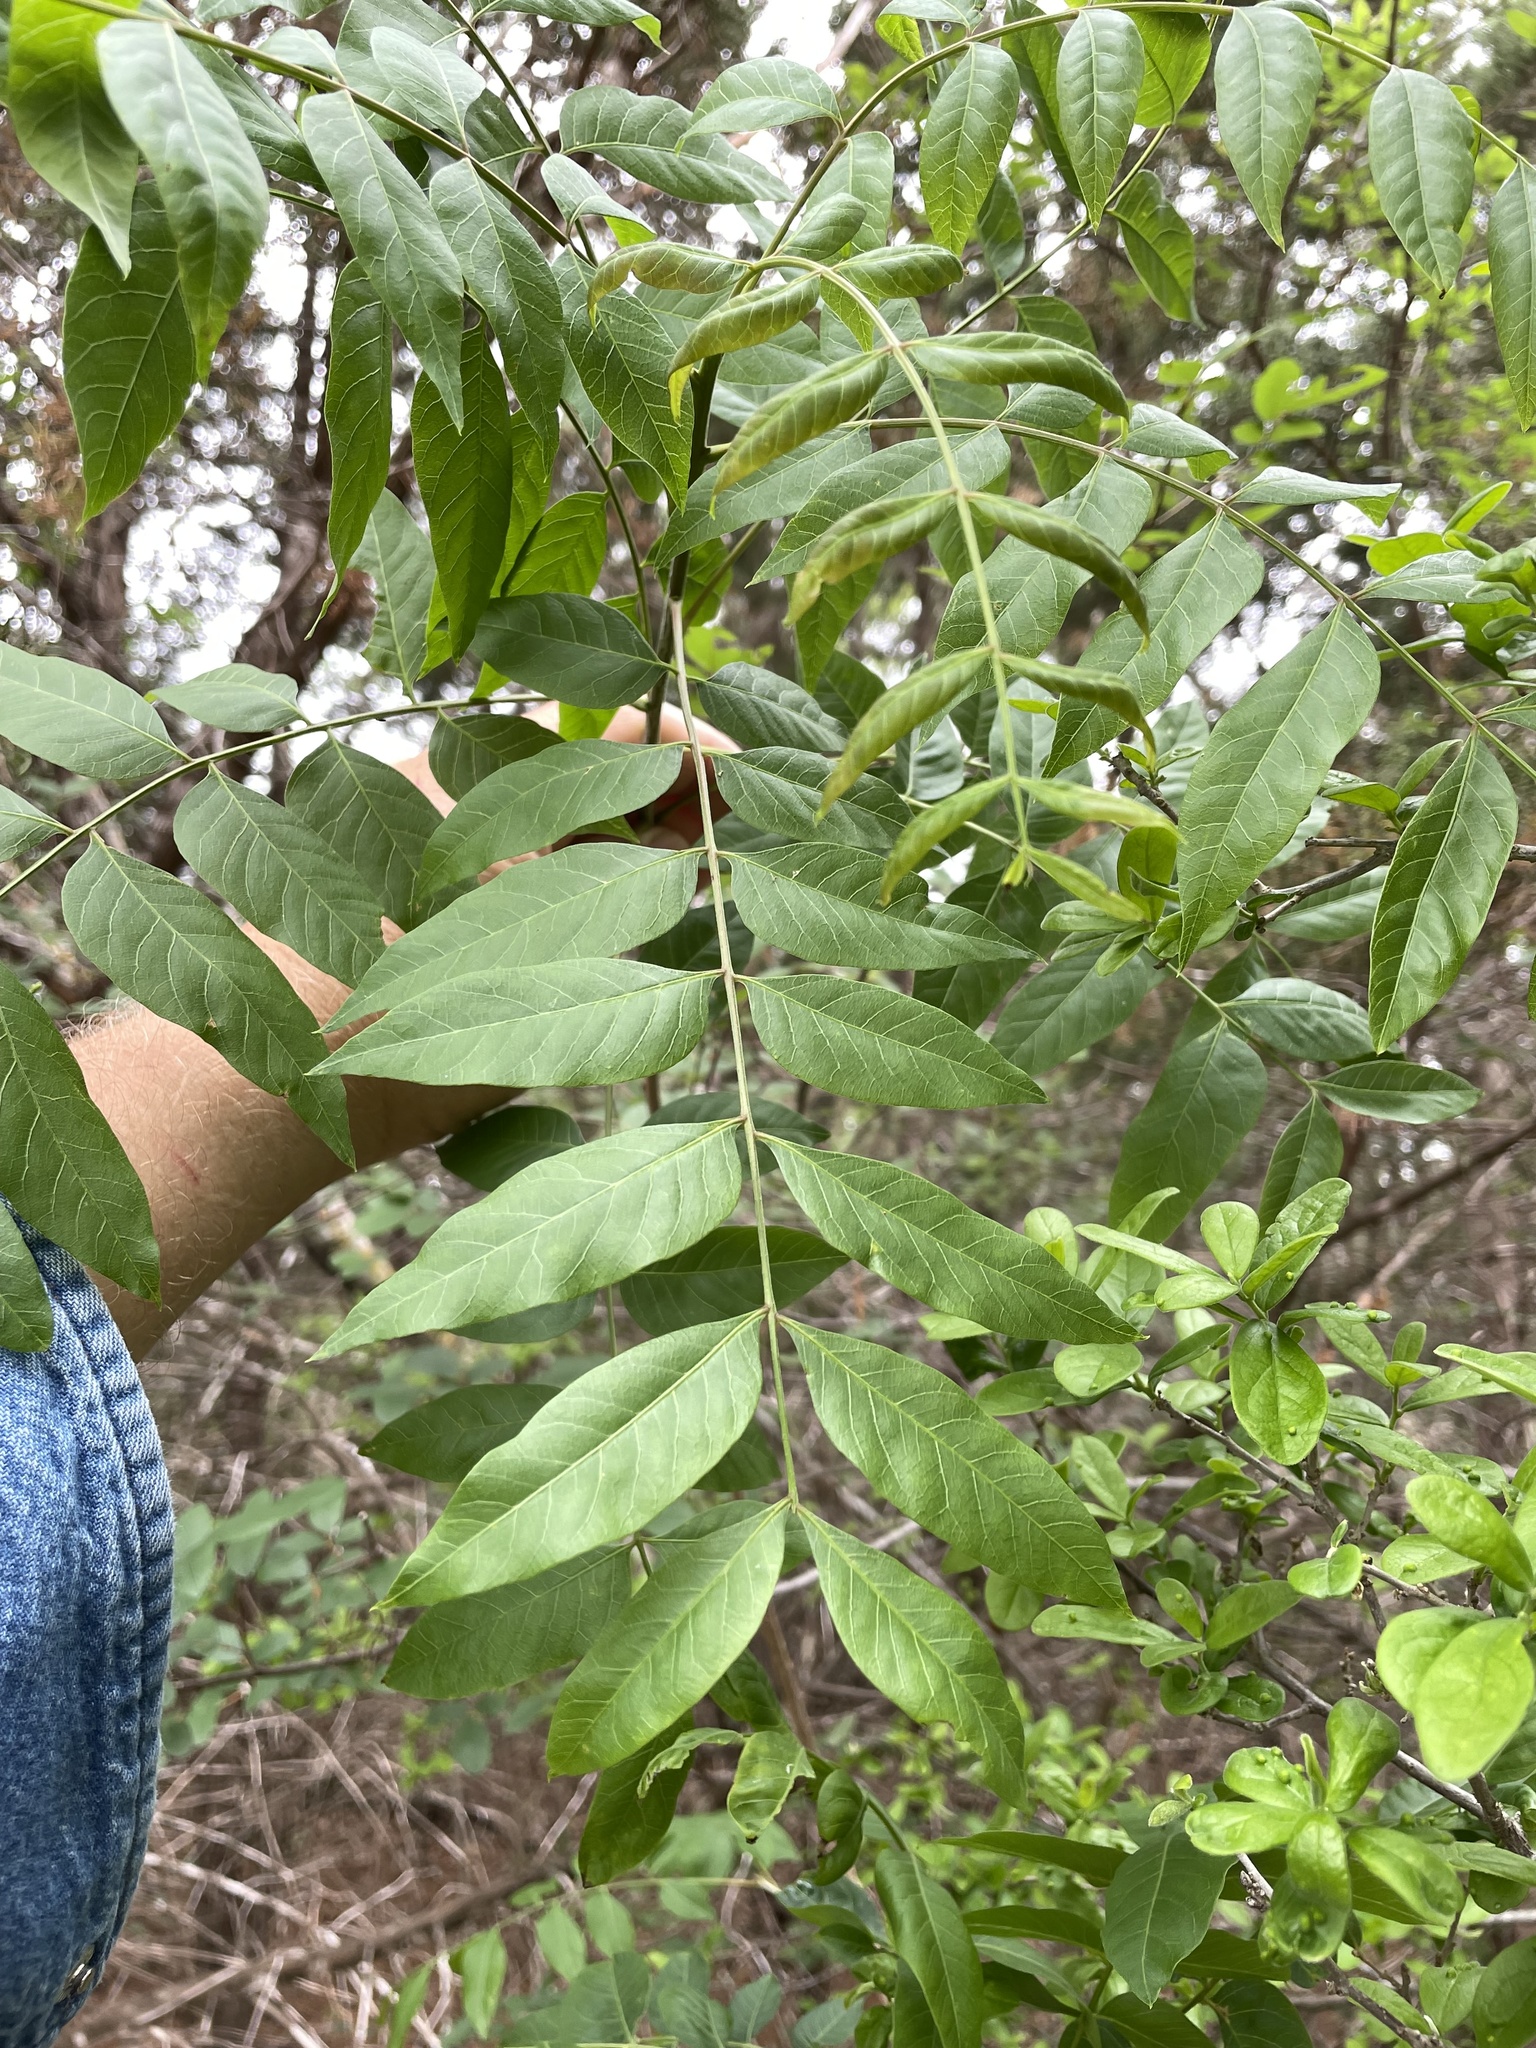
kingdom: Plantae
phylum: Tracheophyta
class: Magnoliopsida
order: Sapindales
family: Anacardiaceae
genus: Pistacia
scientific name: Pistacia chinensis
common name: Chinese pistache
